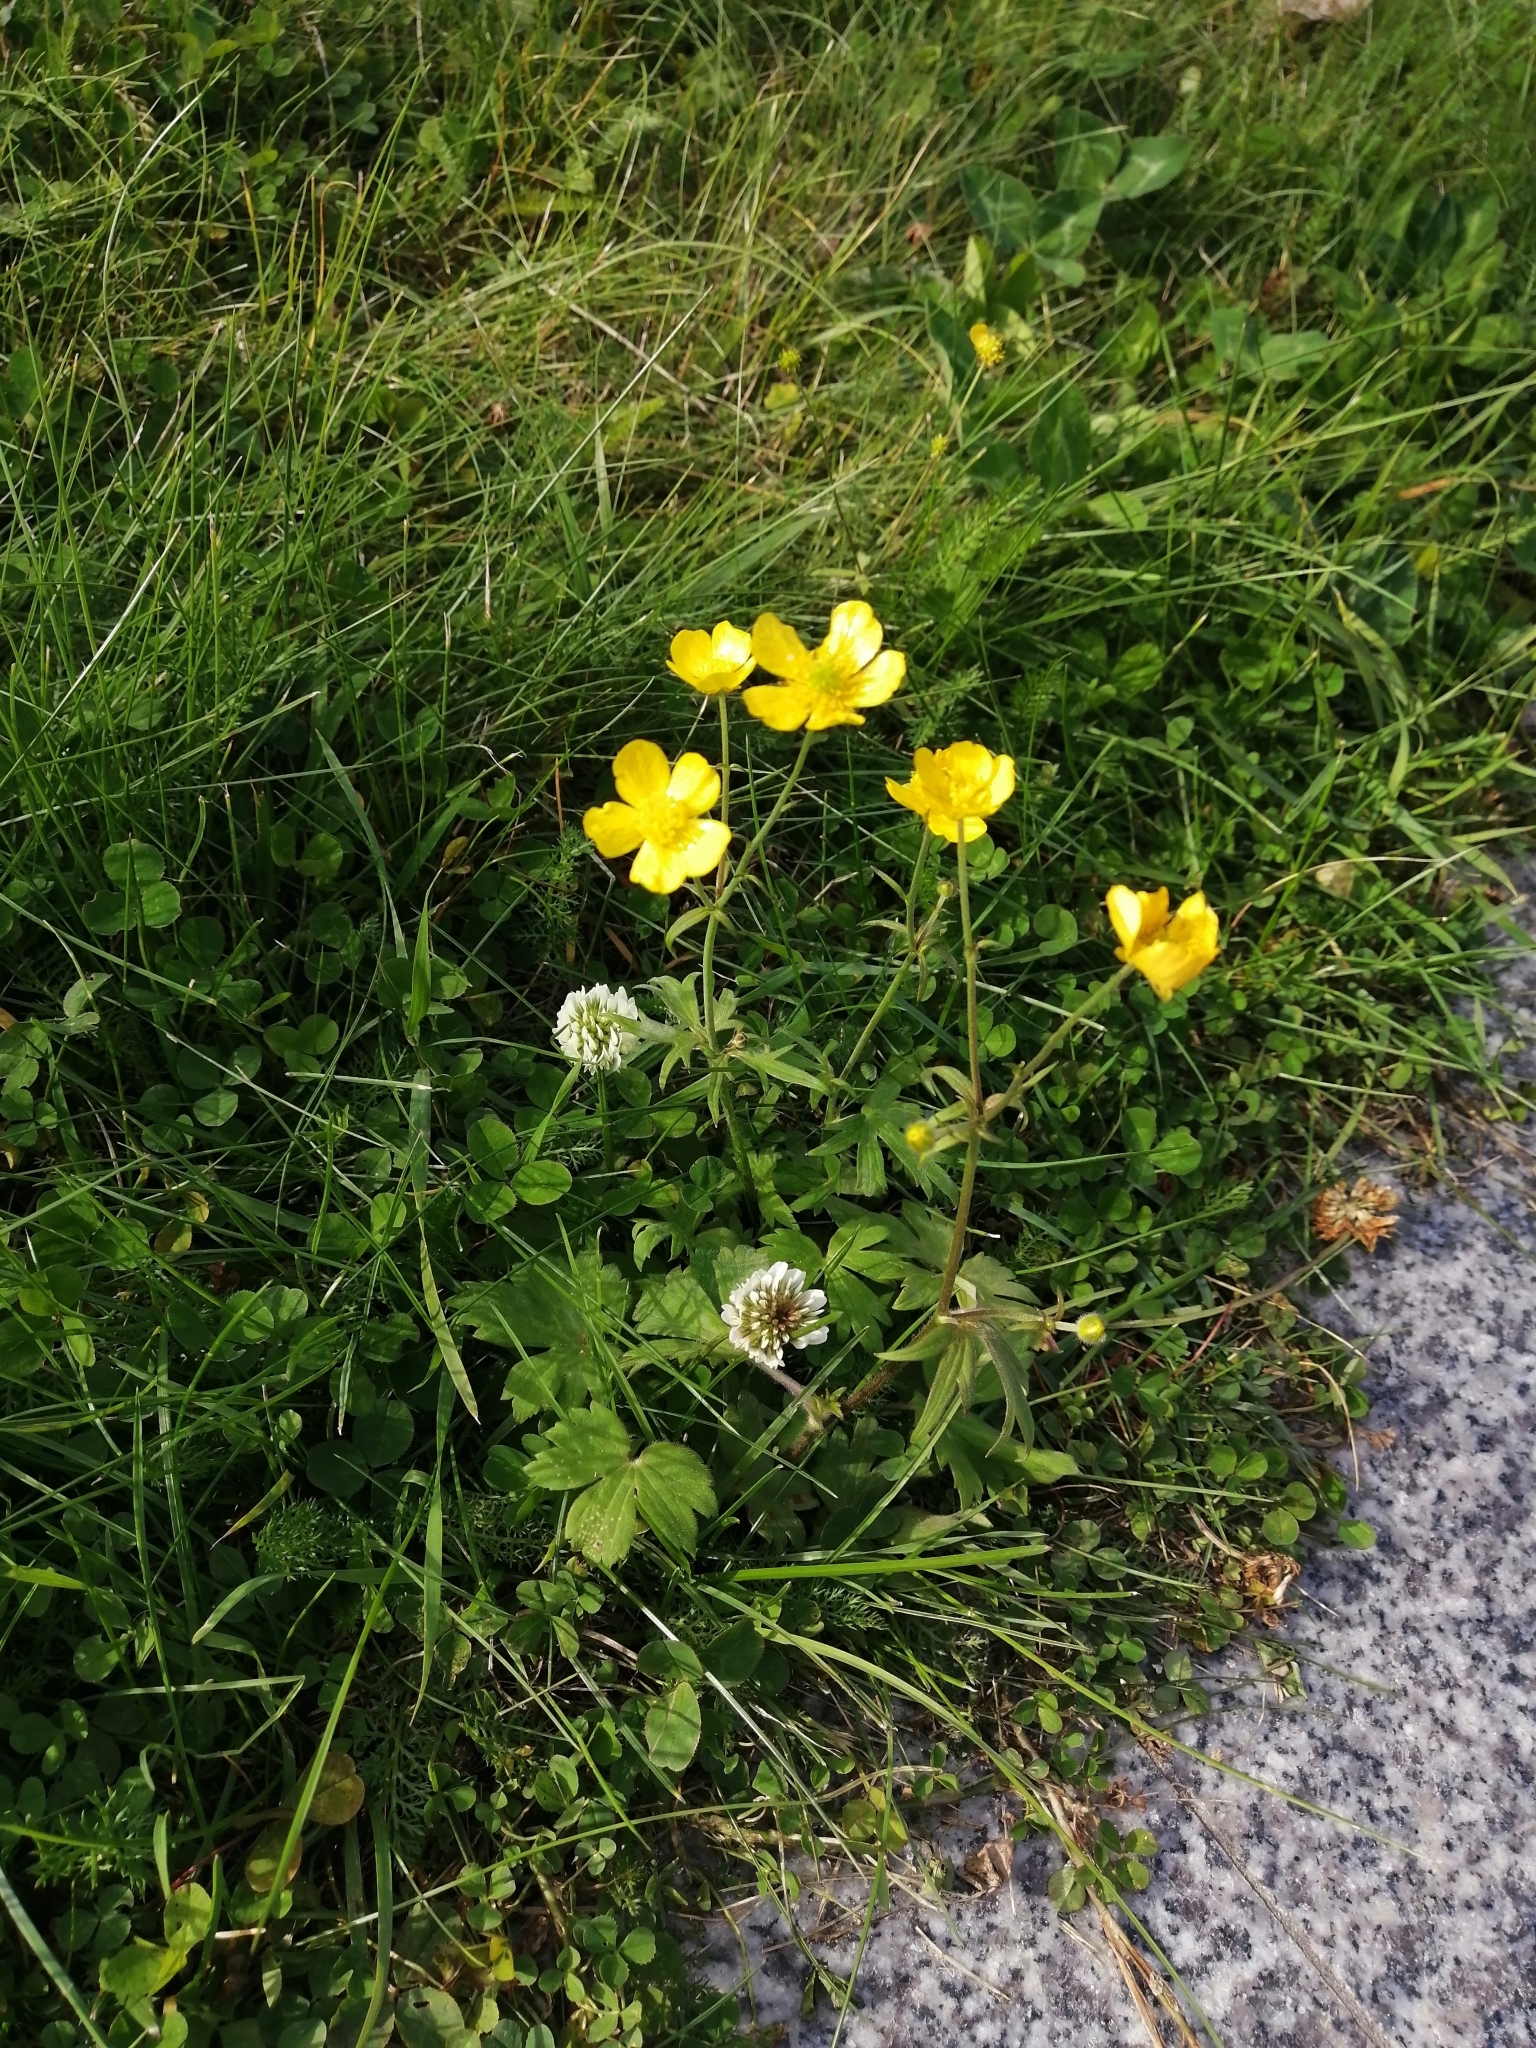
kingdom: Plantae
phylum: Tracheophyta
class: Magnoliopsida
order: Ranunculales
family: Ranunculaceae
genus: Ranunculus
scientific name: Ranunculus propinquus
